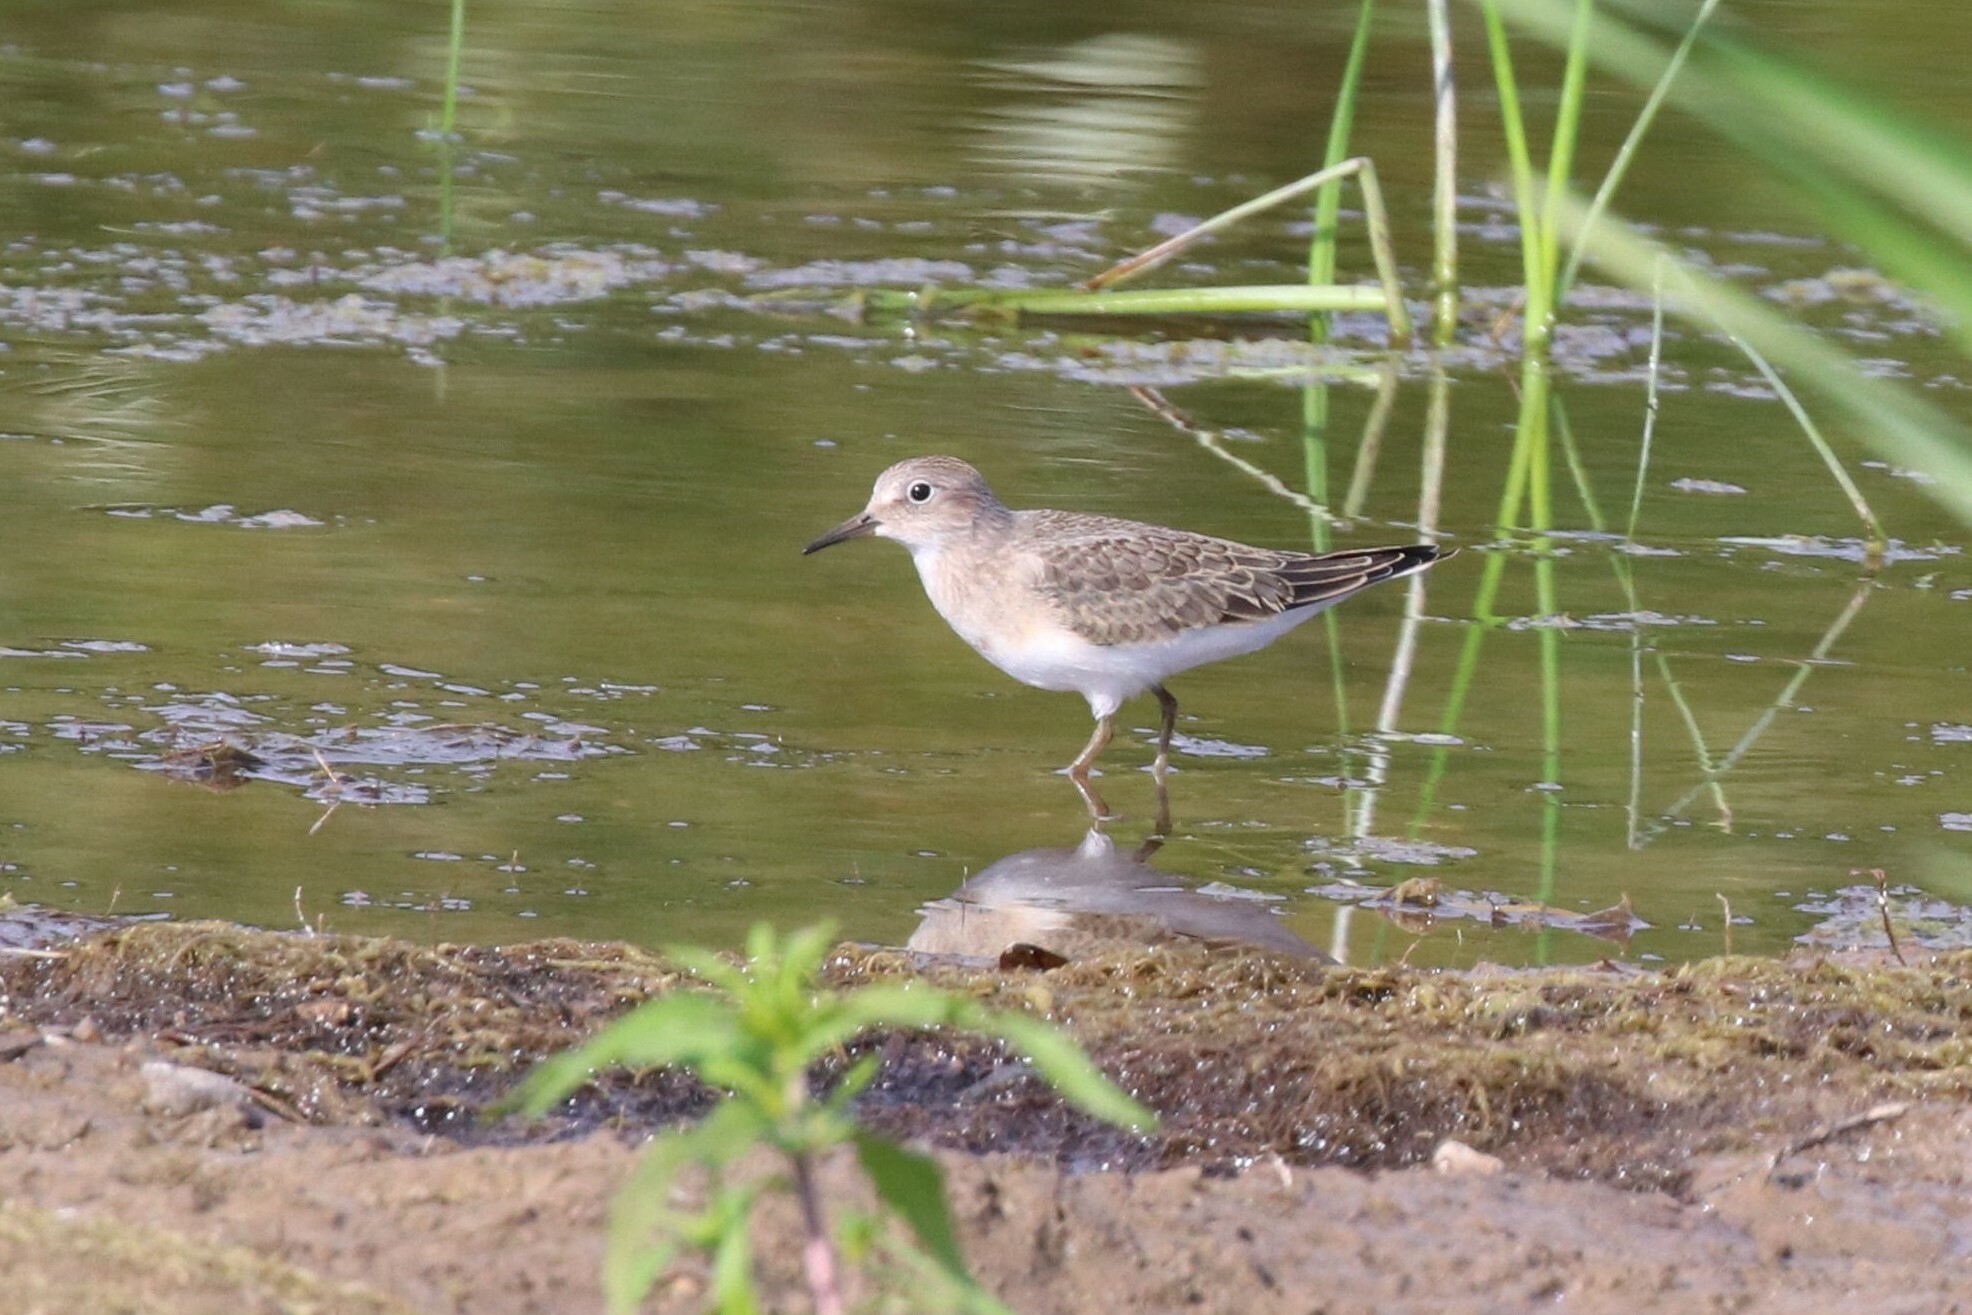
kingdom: Animalia
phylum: Chordata
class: Aves
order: Charadriiformes
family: Scolopacidae
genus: Calidris
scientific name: Calidris temminckii
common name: Temminck's stint
